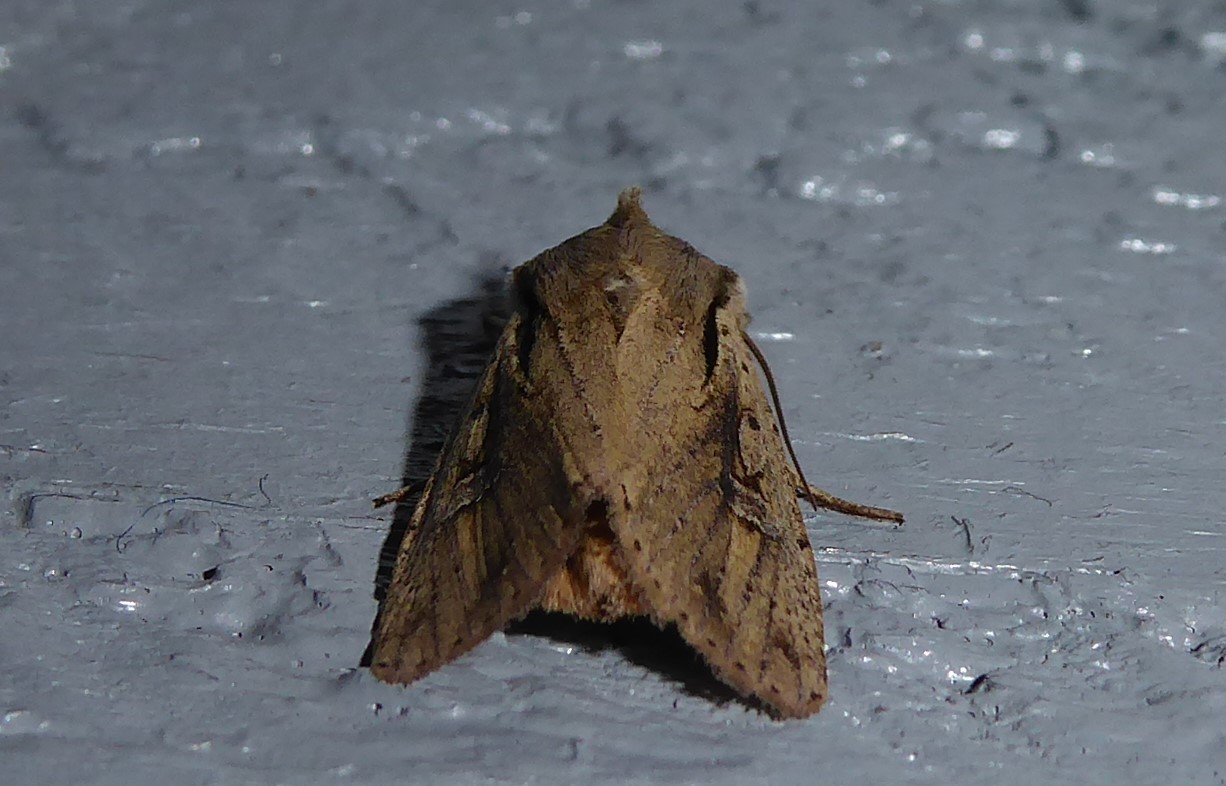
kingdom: Animalia
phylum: Arthropoda
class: Insecta
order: Lepidoptera
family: Noctuidae
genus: Ichneutica
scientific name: Ichneutica atristriga
